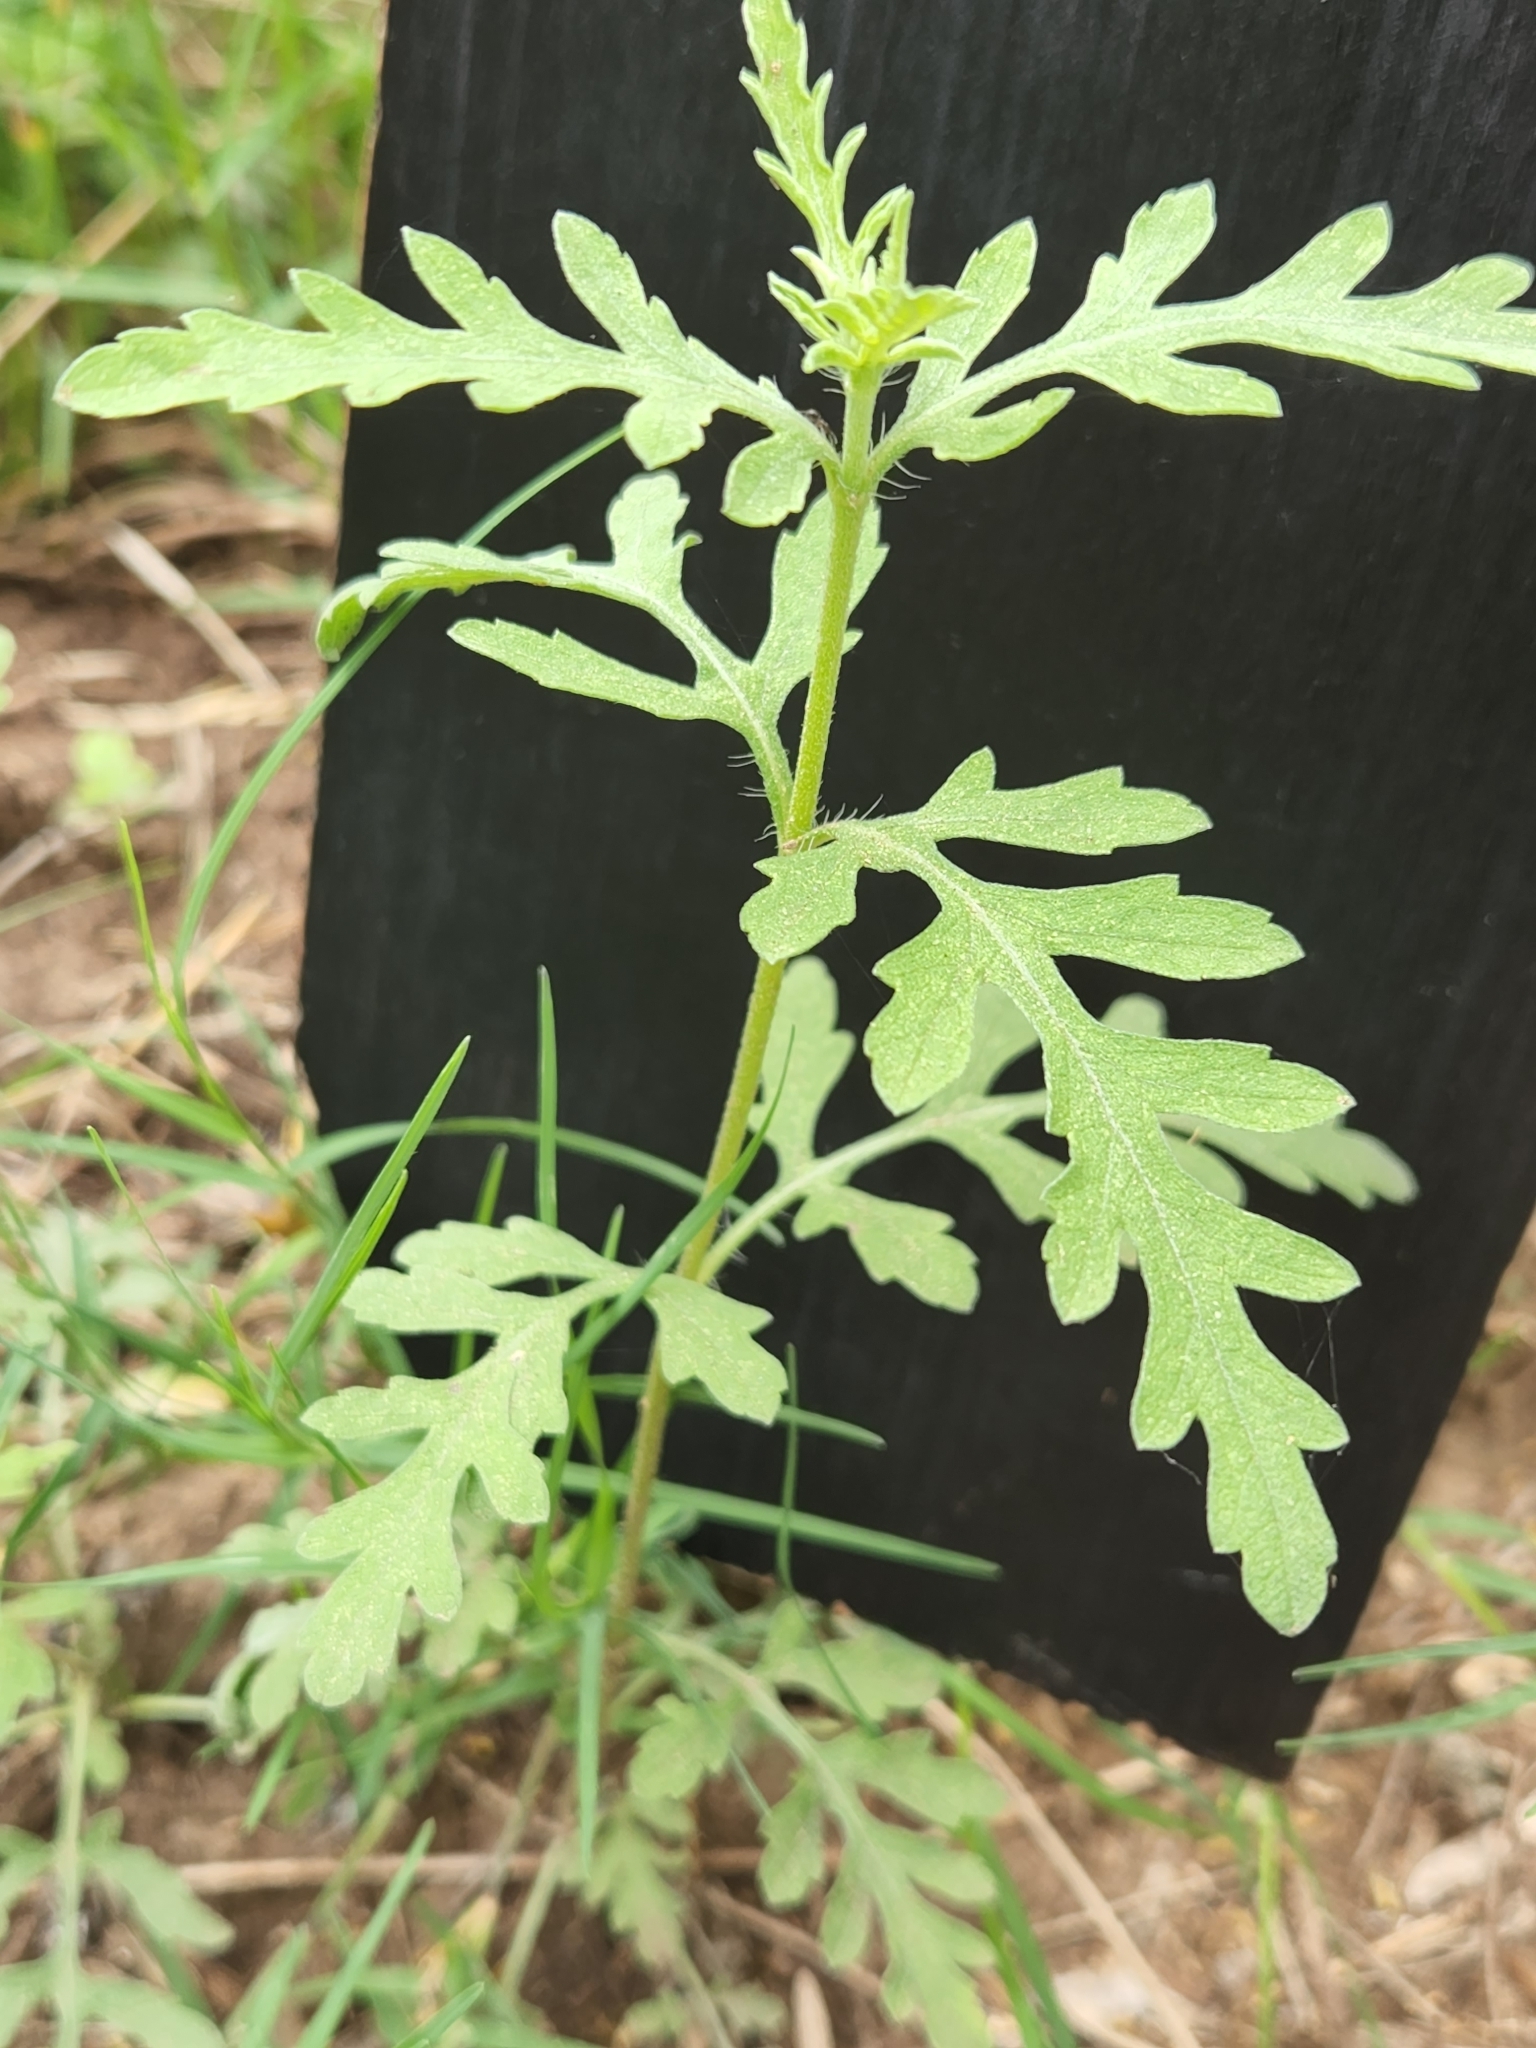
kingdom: Plantae
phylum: Tracheophyta
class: Magnoliopsida
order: Asterales
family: Asteraceae
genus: Ambrosia
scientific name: Ambrosia psilostachya
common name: Perennial ragweed
